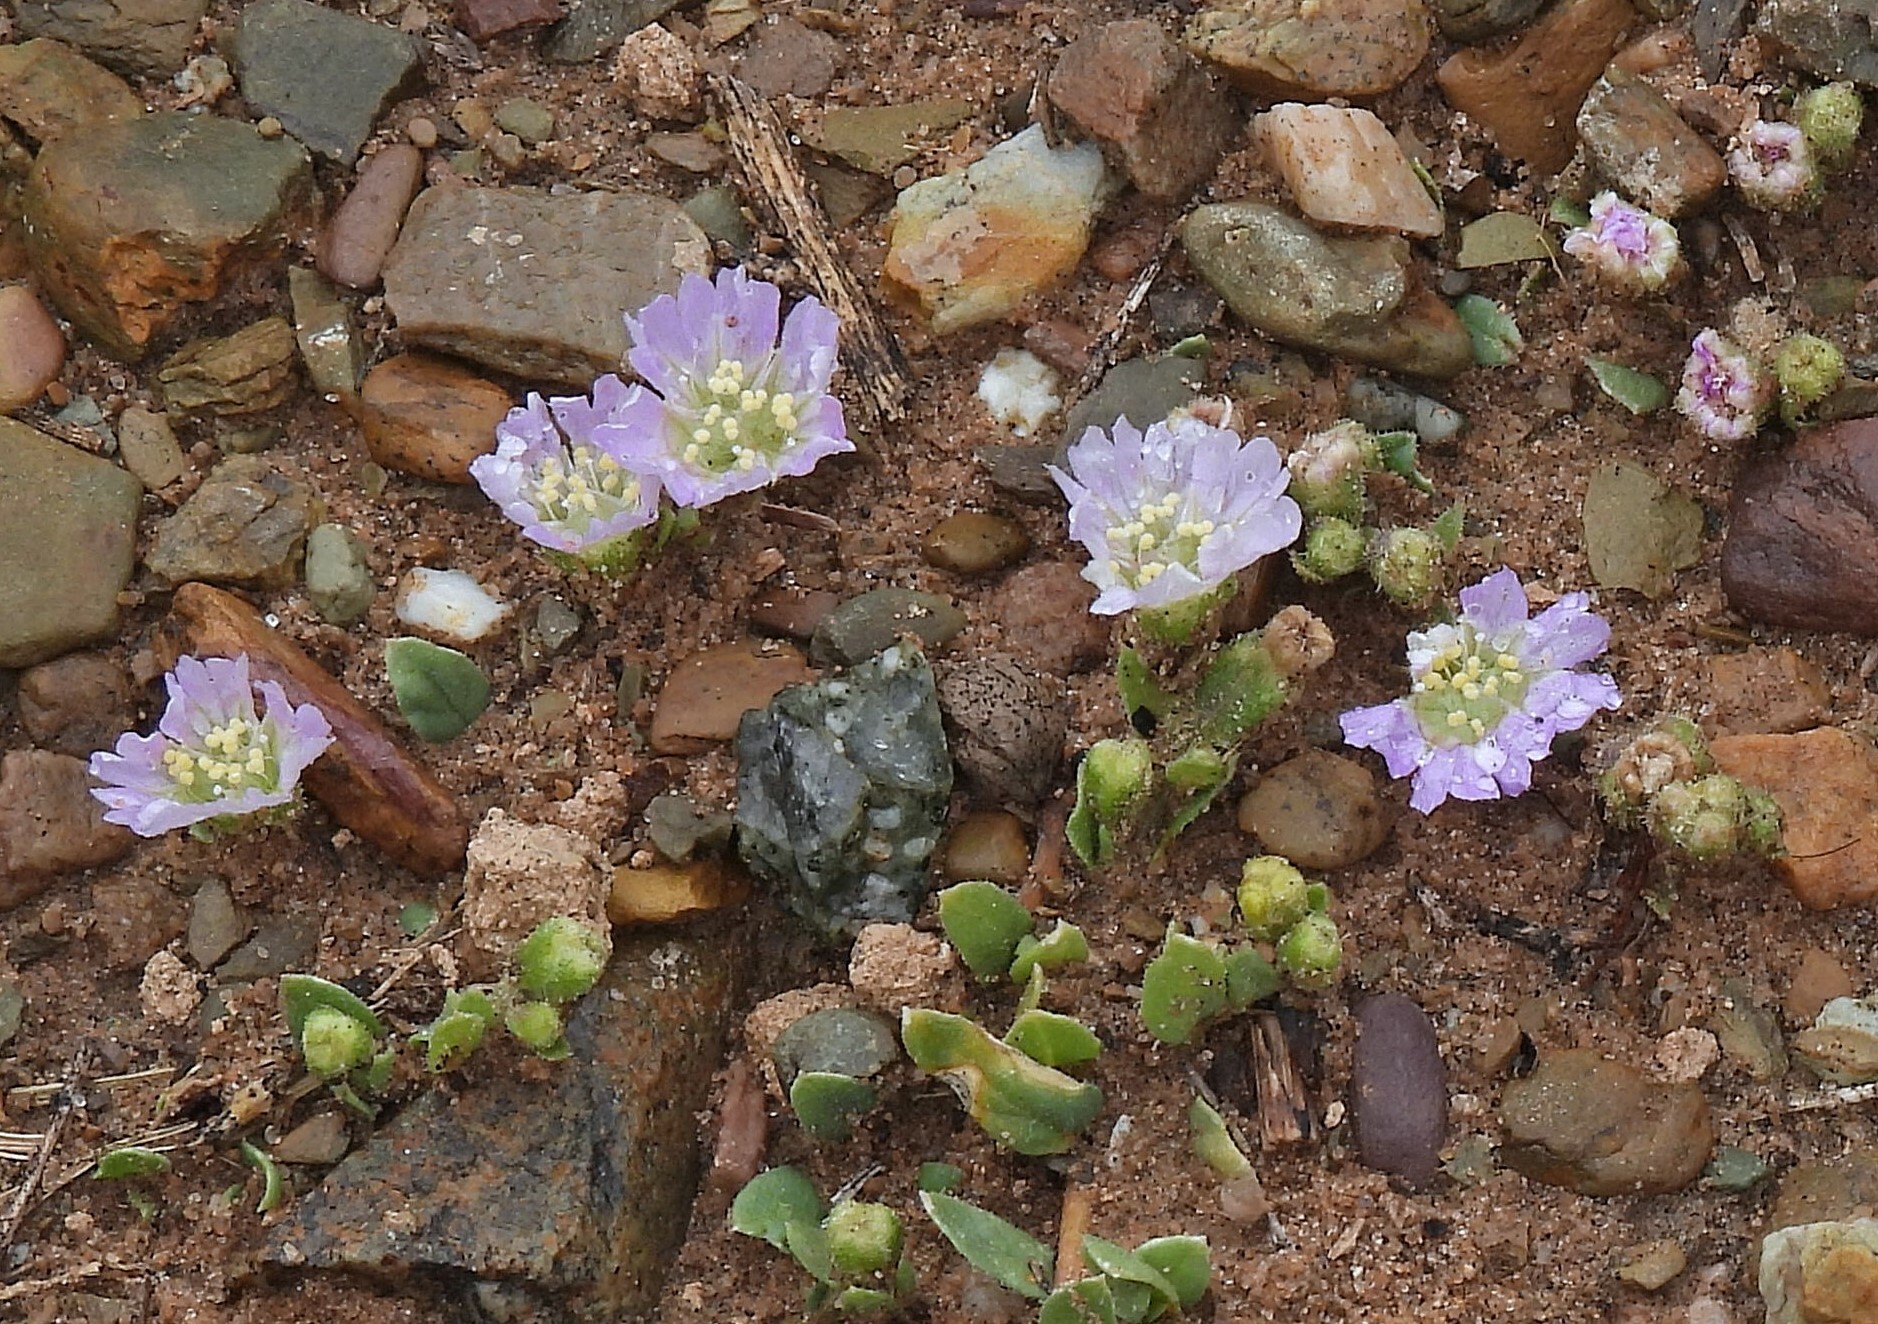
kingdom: Plantae
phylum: Tracheophyta
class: Magnoliopsida
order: Caryophyllales
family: Nyctaginaceae
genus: Allionia
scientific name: Allionia choisyi
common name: Trailing-four-o'clock
